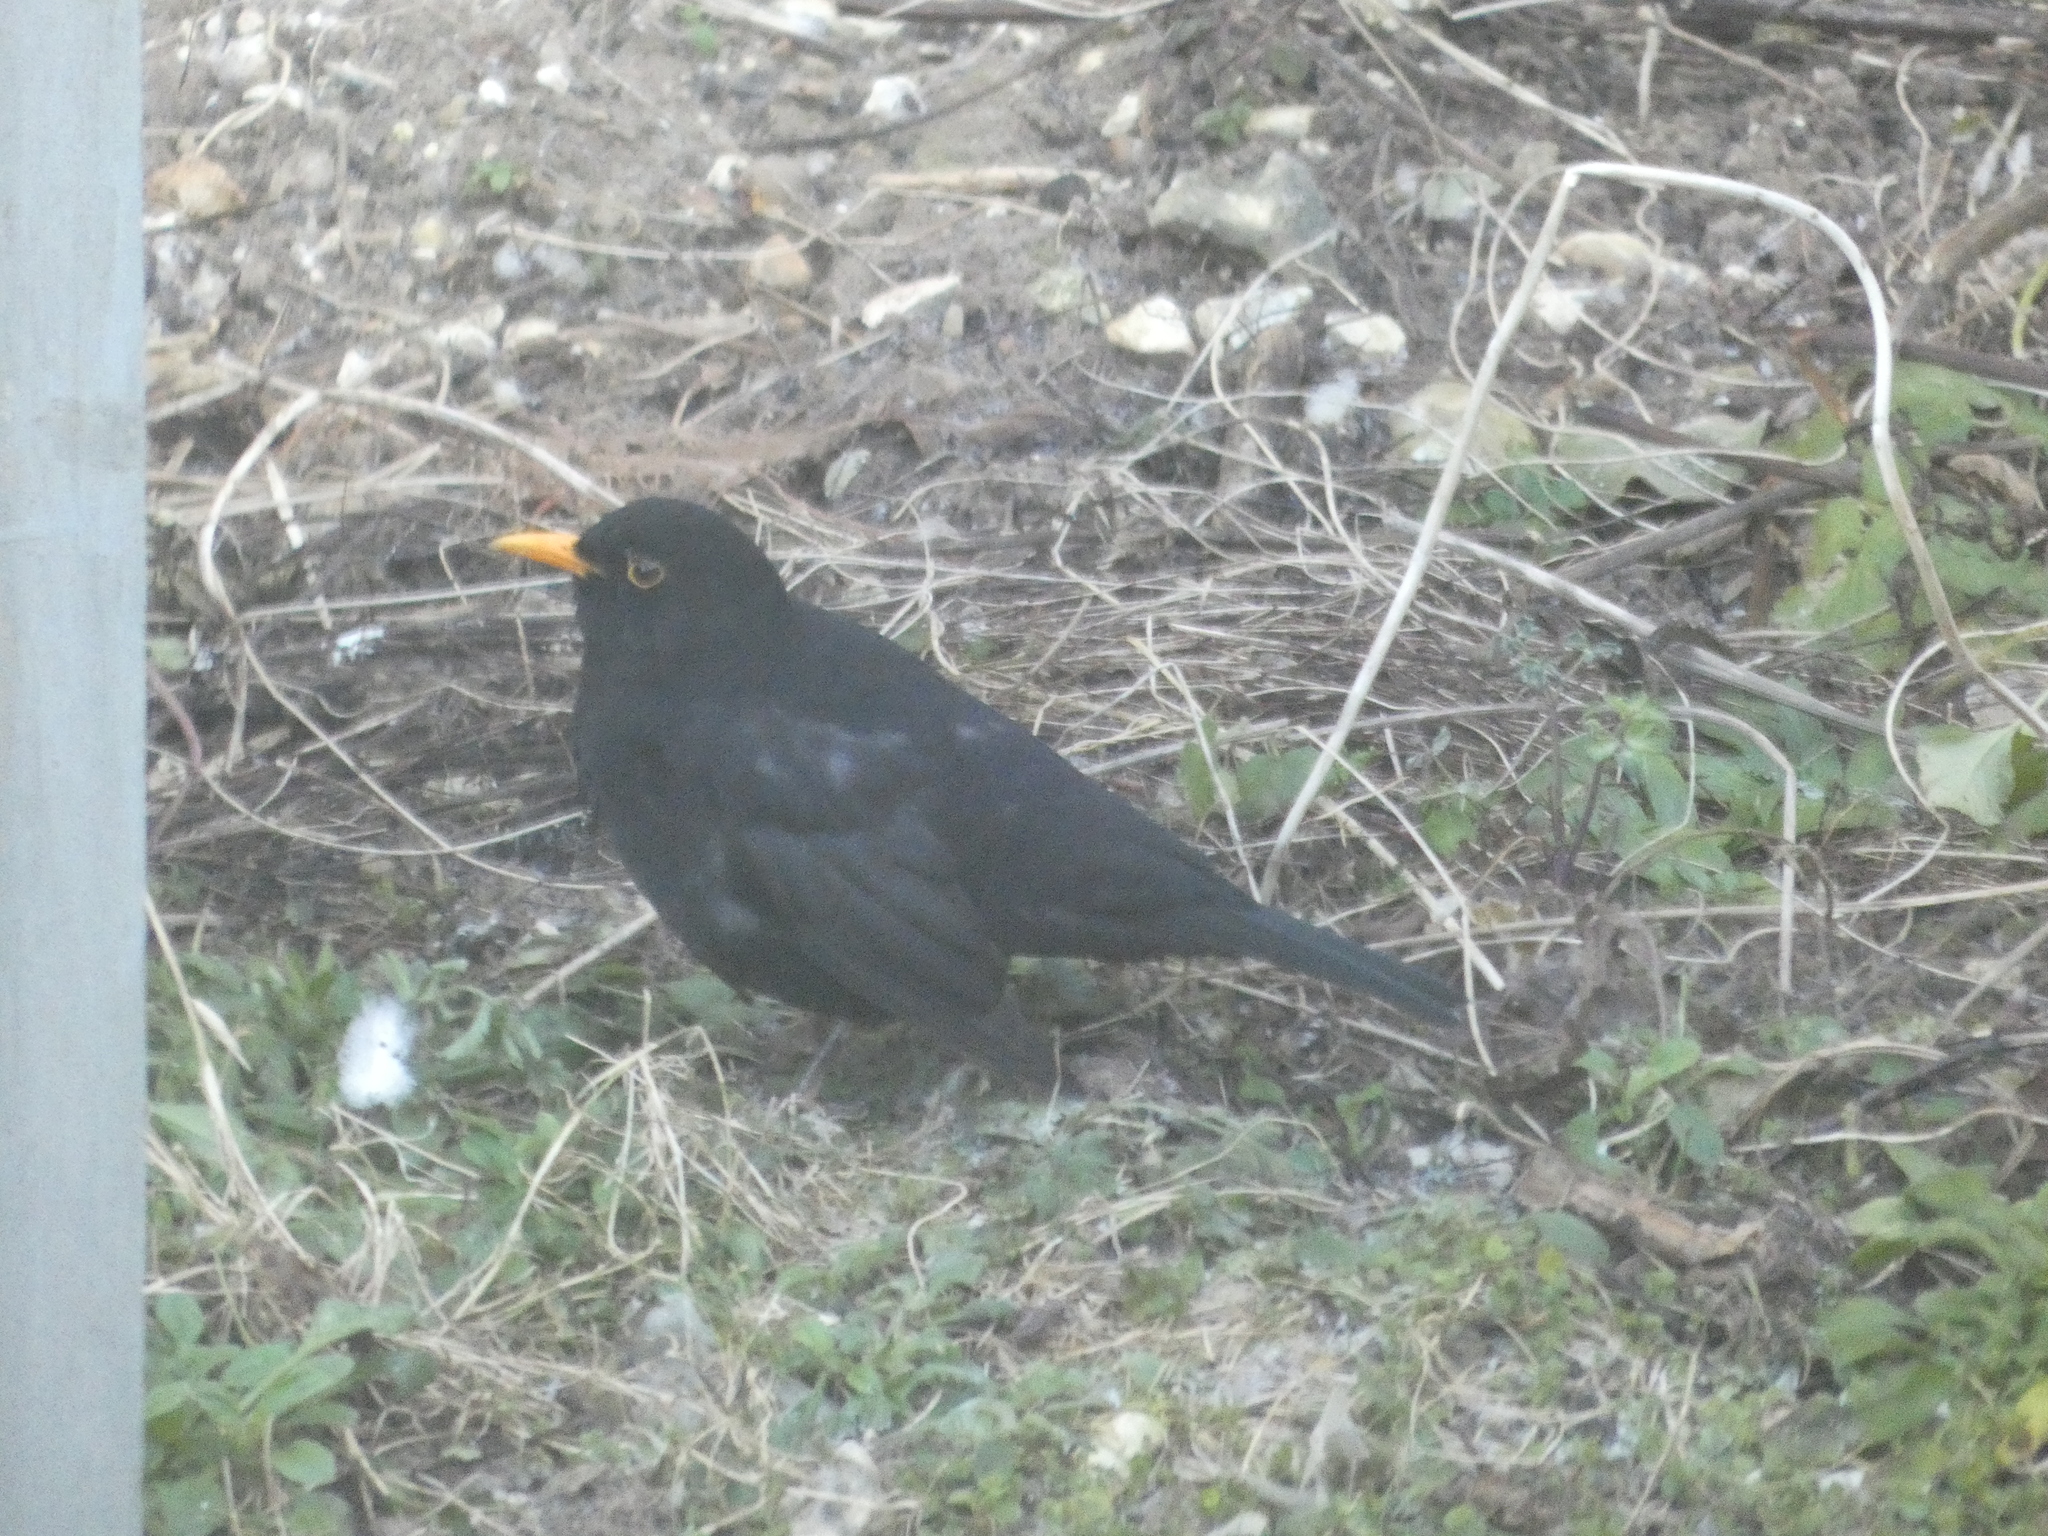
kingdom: Animalia
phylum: Chordata
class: Aves
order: Passeriformes
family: Turdidae
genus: Turdus
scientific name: Turdus merula
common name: Common blackbird
